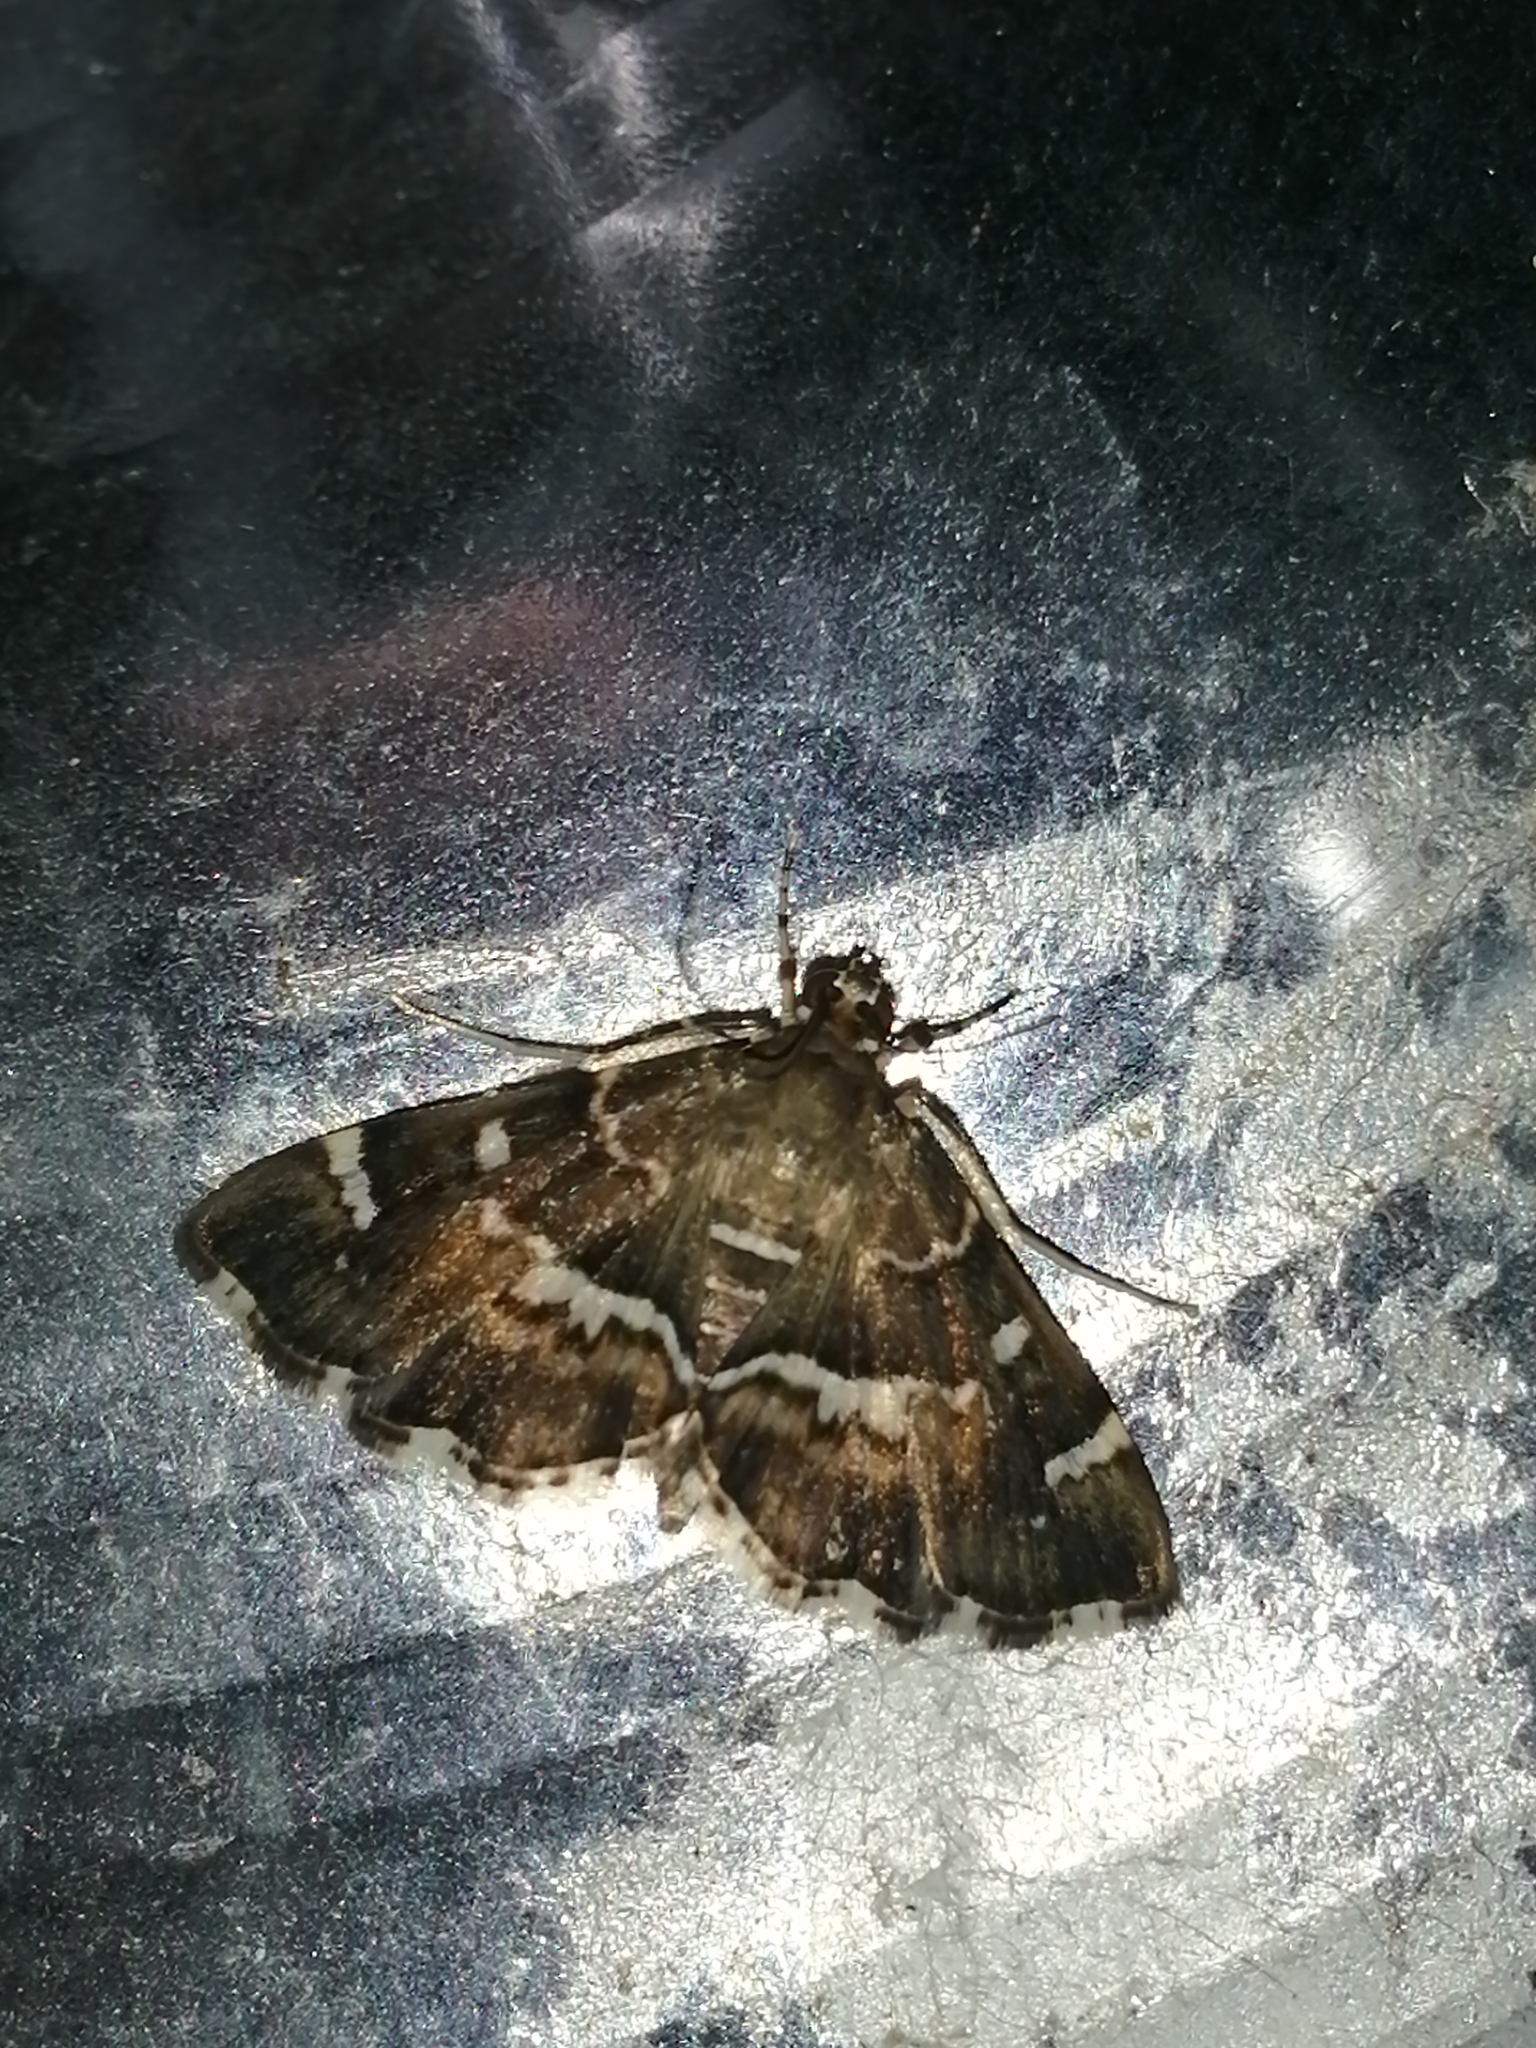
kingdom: Animalia
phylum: Arthropoda
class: Insecta
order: Lepidoptera
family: Crambidae
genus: Hymenia
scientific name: Hymenia perspectalis
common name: Spotted beet webworm
